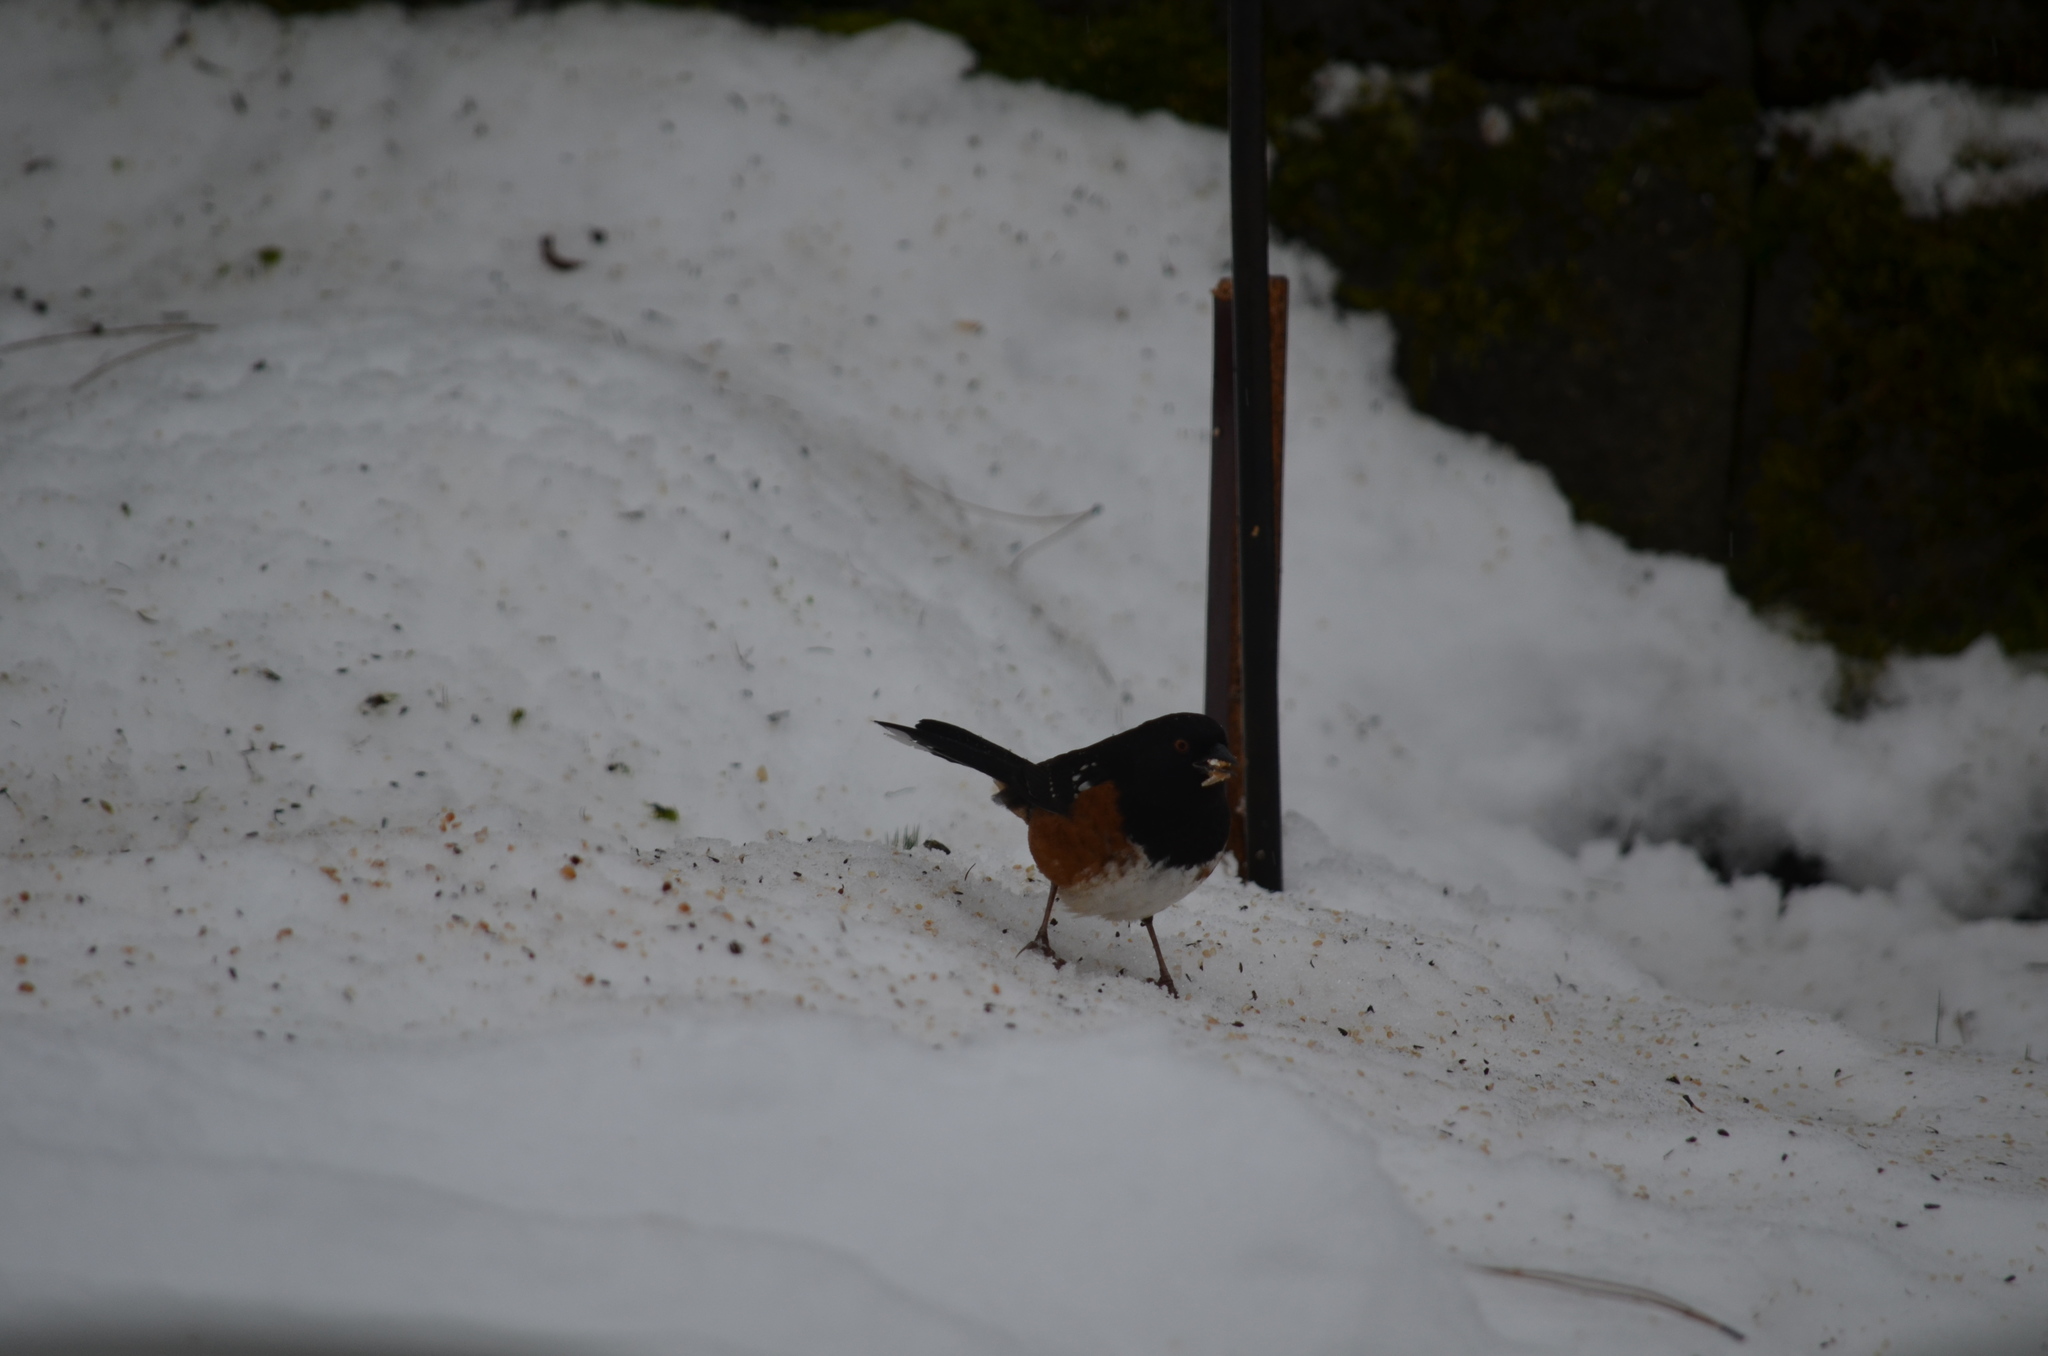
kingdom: Animalia
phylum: Chordata
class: Aves
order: Passeriformes
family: Passerellidae
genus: Pipilo
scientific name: Pipilo maculatus
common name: Spotted towhee
